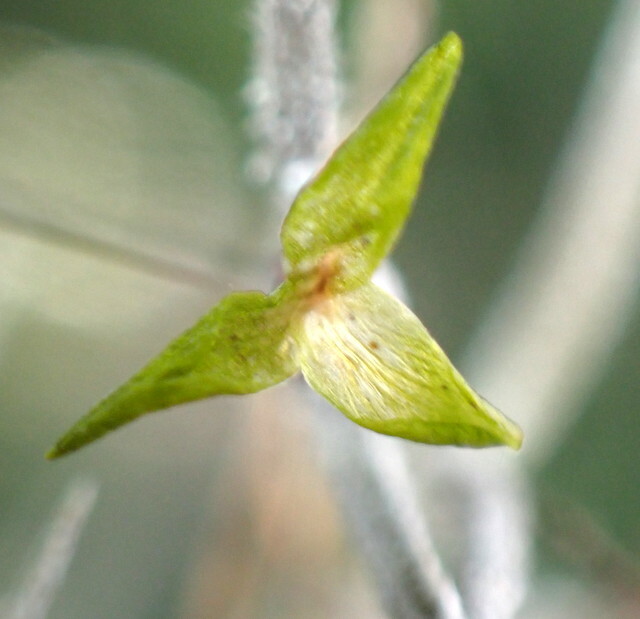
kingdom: Plantae
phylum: Tracheophyta
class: Liliopsida
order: Poales
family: Bromeliaceae
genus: Tillandsia
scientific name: Tillandsia usneoides
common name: Spanish moss
